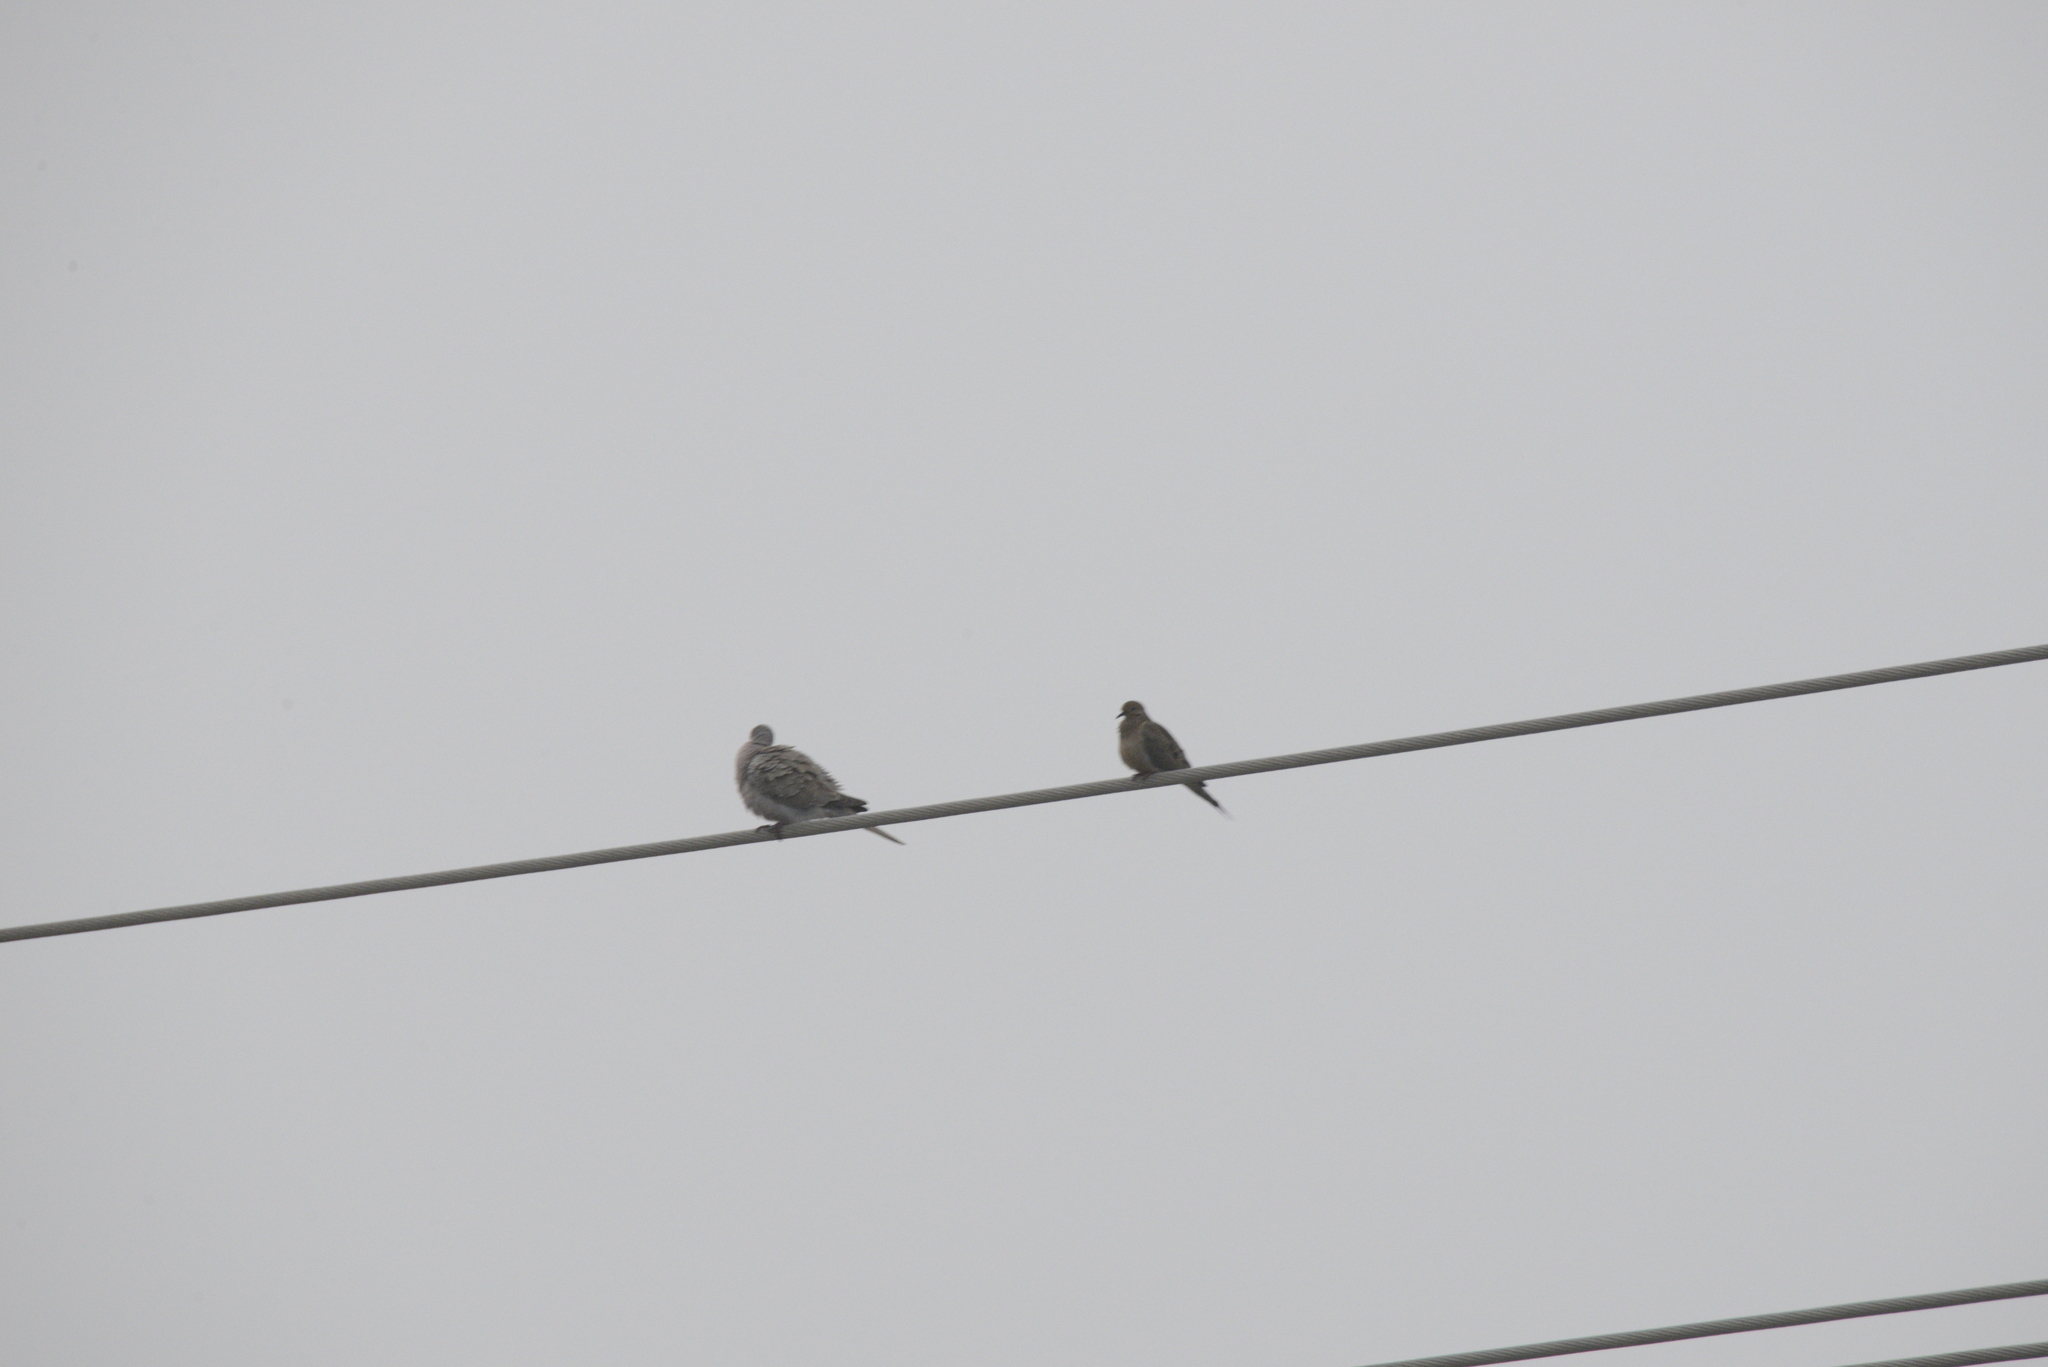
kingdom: Animalia
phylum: Chordata
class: Aves
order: Columbiformes
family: Columbidae
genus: Zenaida
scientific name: Zenaida macroura
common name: Mourning dove
